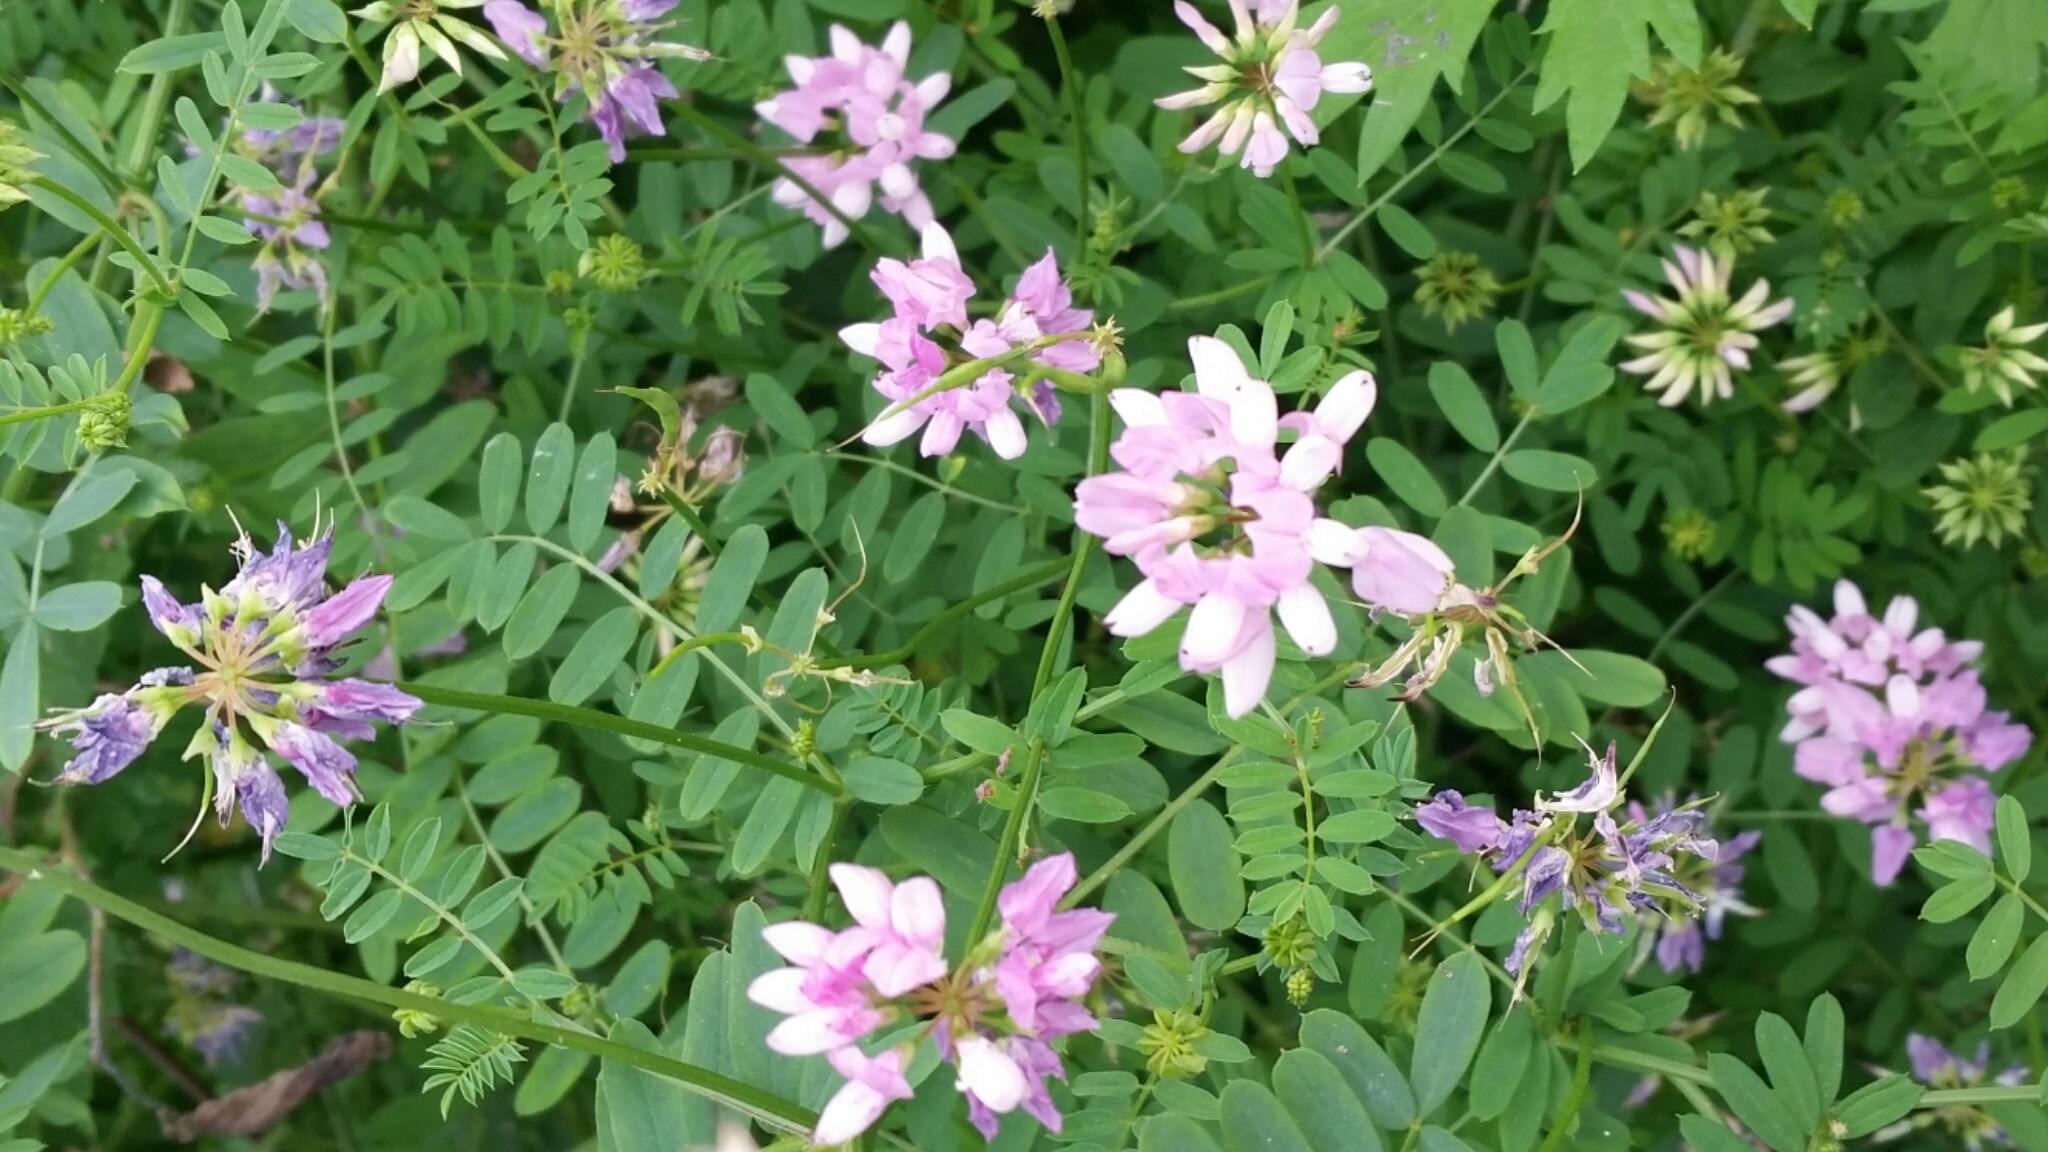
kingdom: Plantae
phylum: Tracheophyta
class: Magnoliopsida
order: Fabales
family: Fabaceae
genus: Coronilla
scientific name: Coronilla varia
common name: Crownvetch
